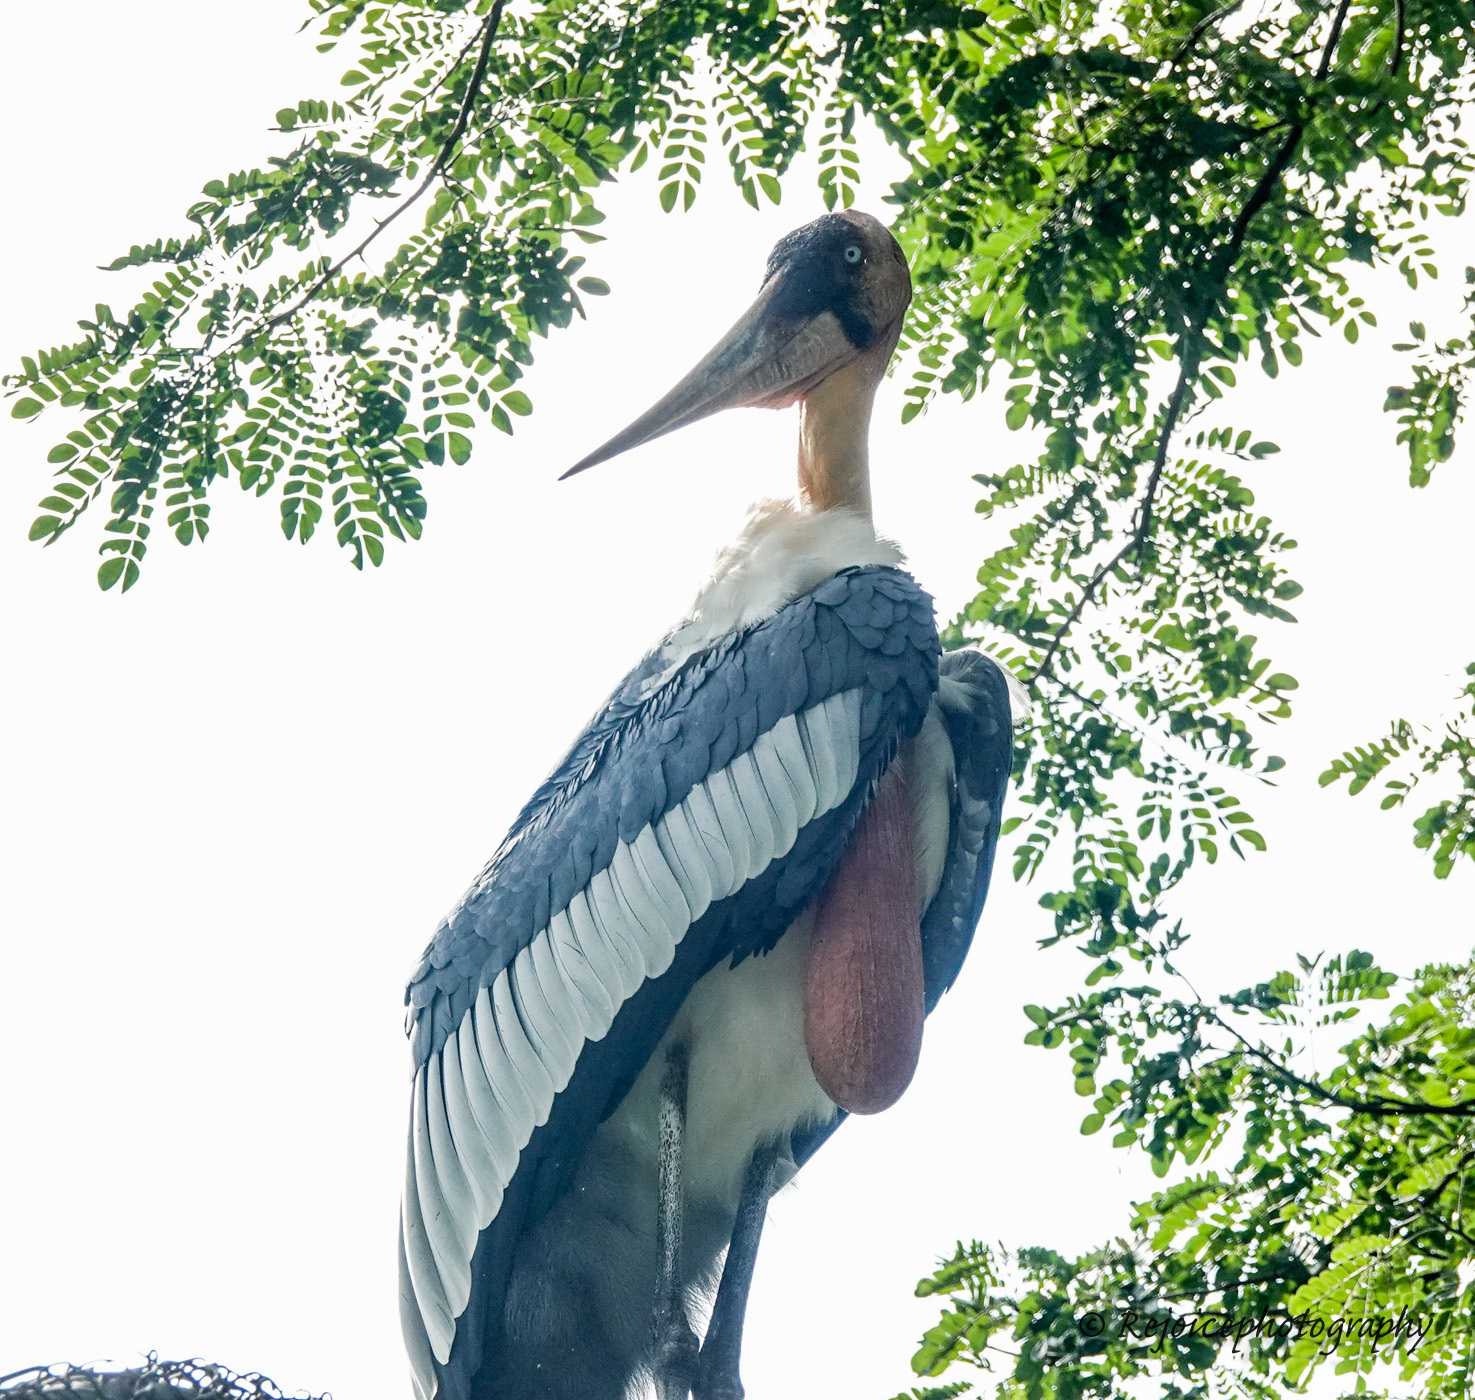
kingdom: Animalia
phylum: Chordata
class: Aves
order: Ciconiiformes
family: Ciconiidae
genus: Leptoptilos
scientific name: Leptoptilos dubius
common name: Greater adjutant
